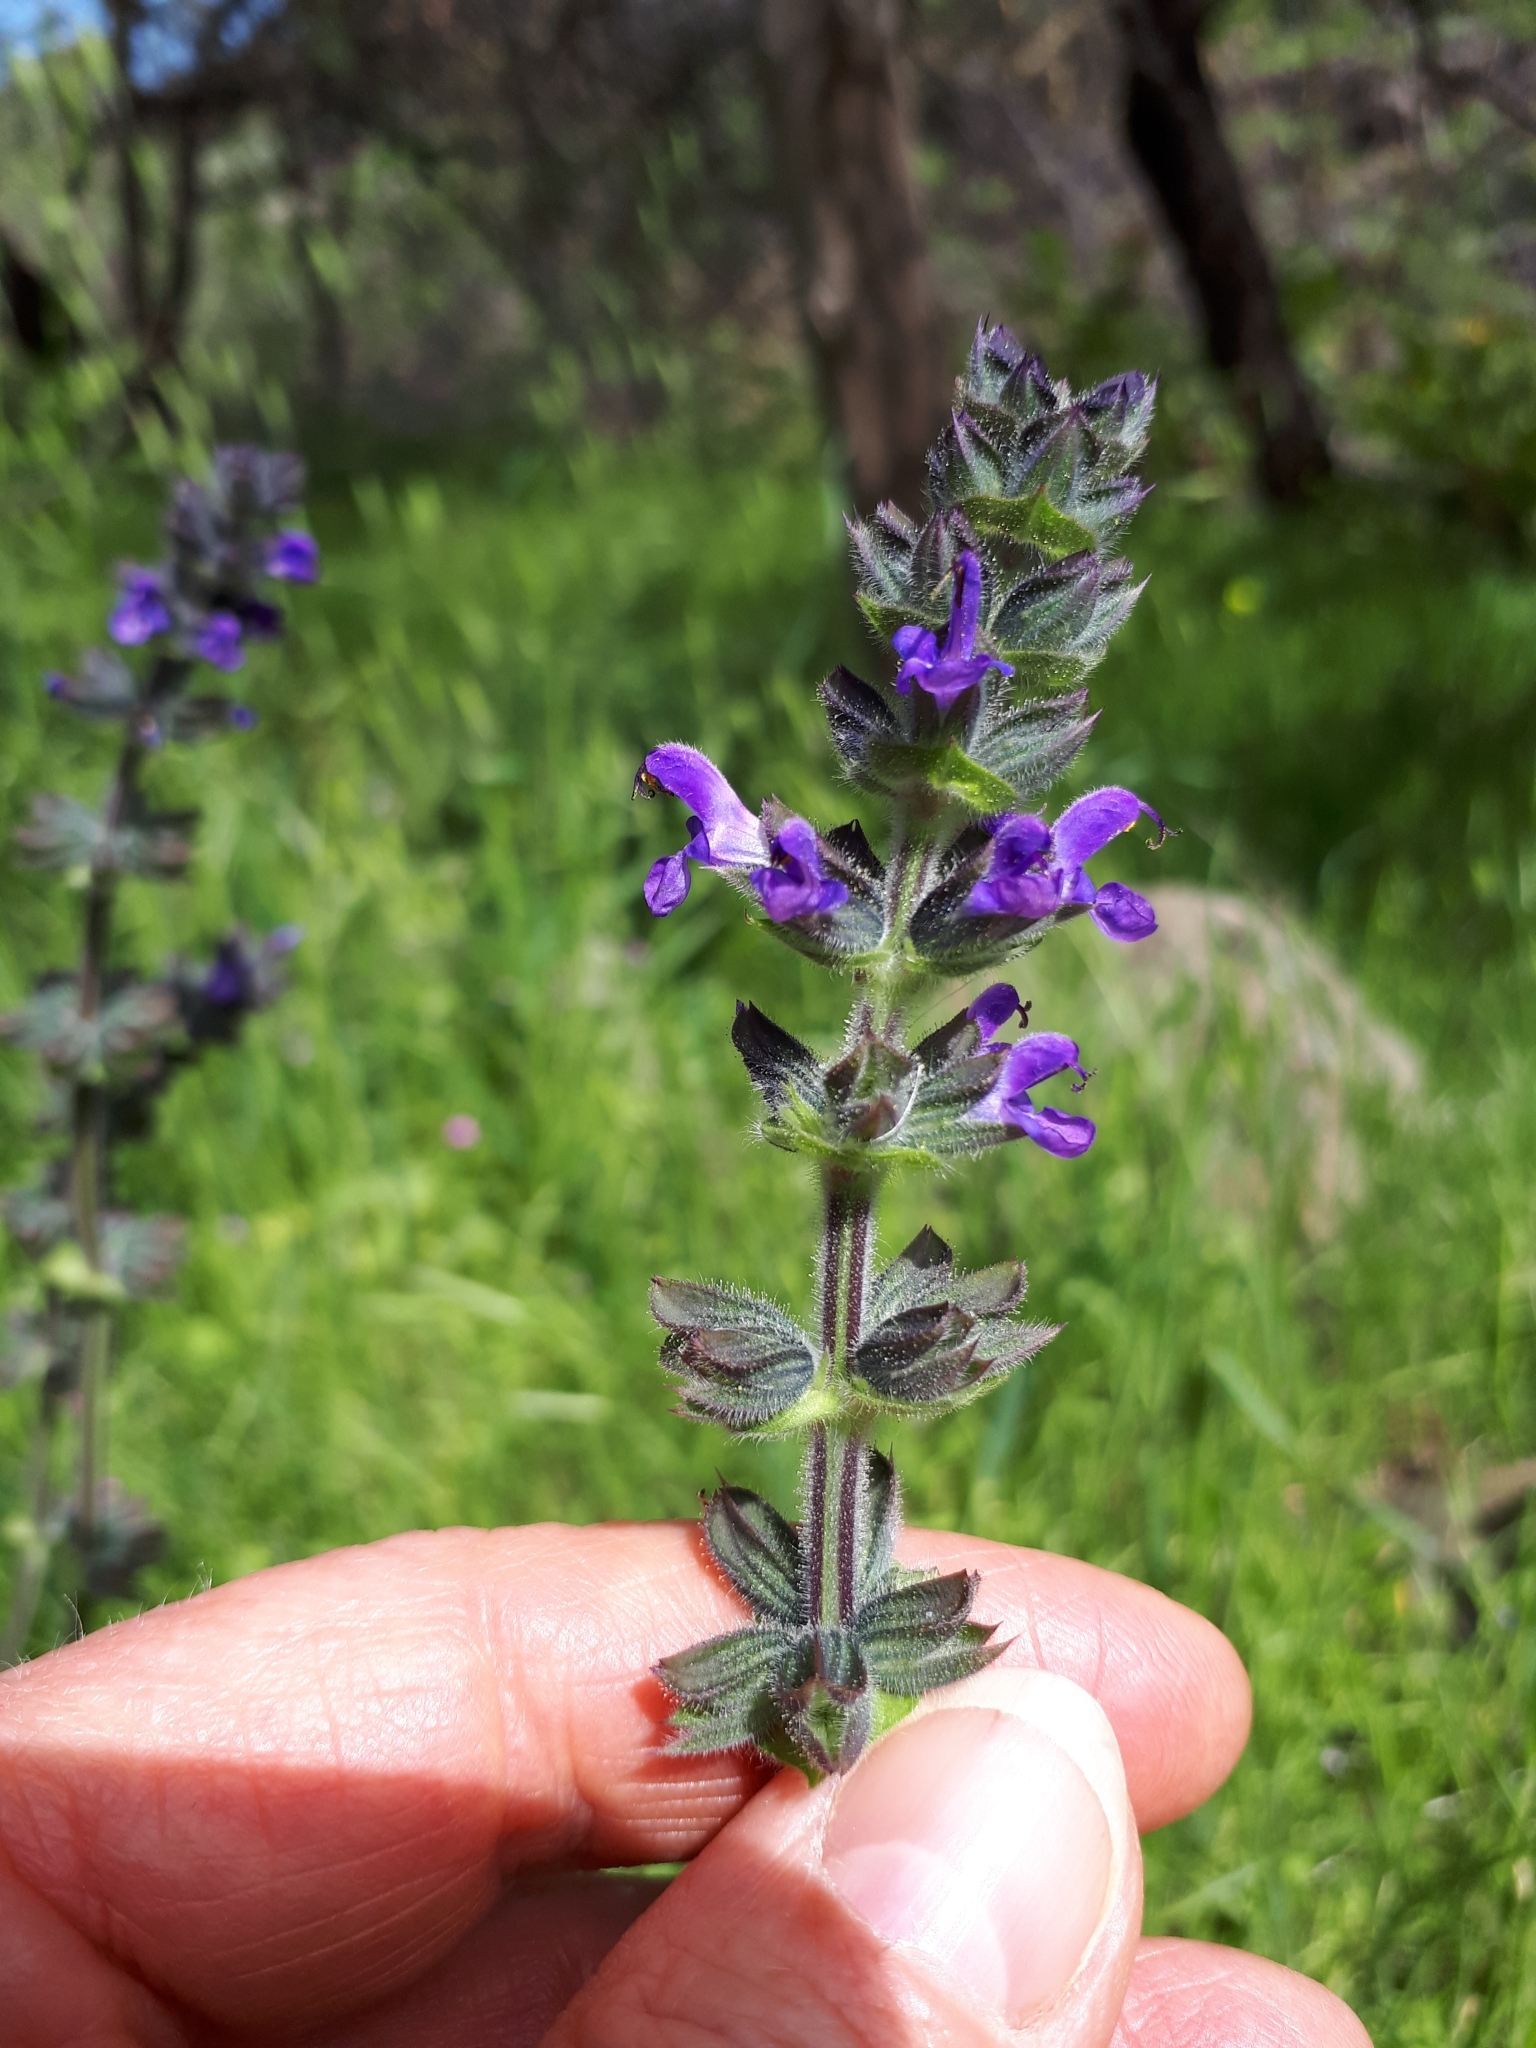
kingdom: Plantae
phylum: Tracheophyta
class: Magnoliopsida
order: Lamiales
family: Lamiaceae
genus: Salvia
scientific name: Salvia verbenaca
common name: Wild clary
